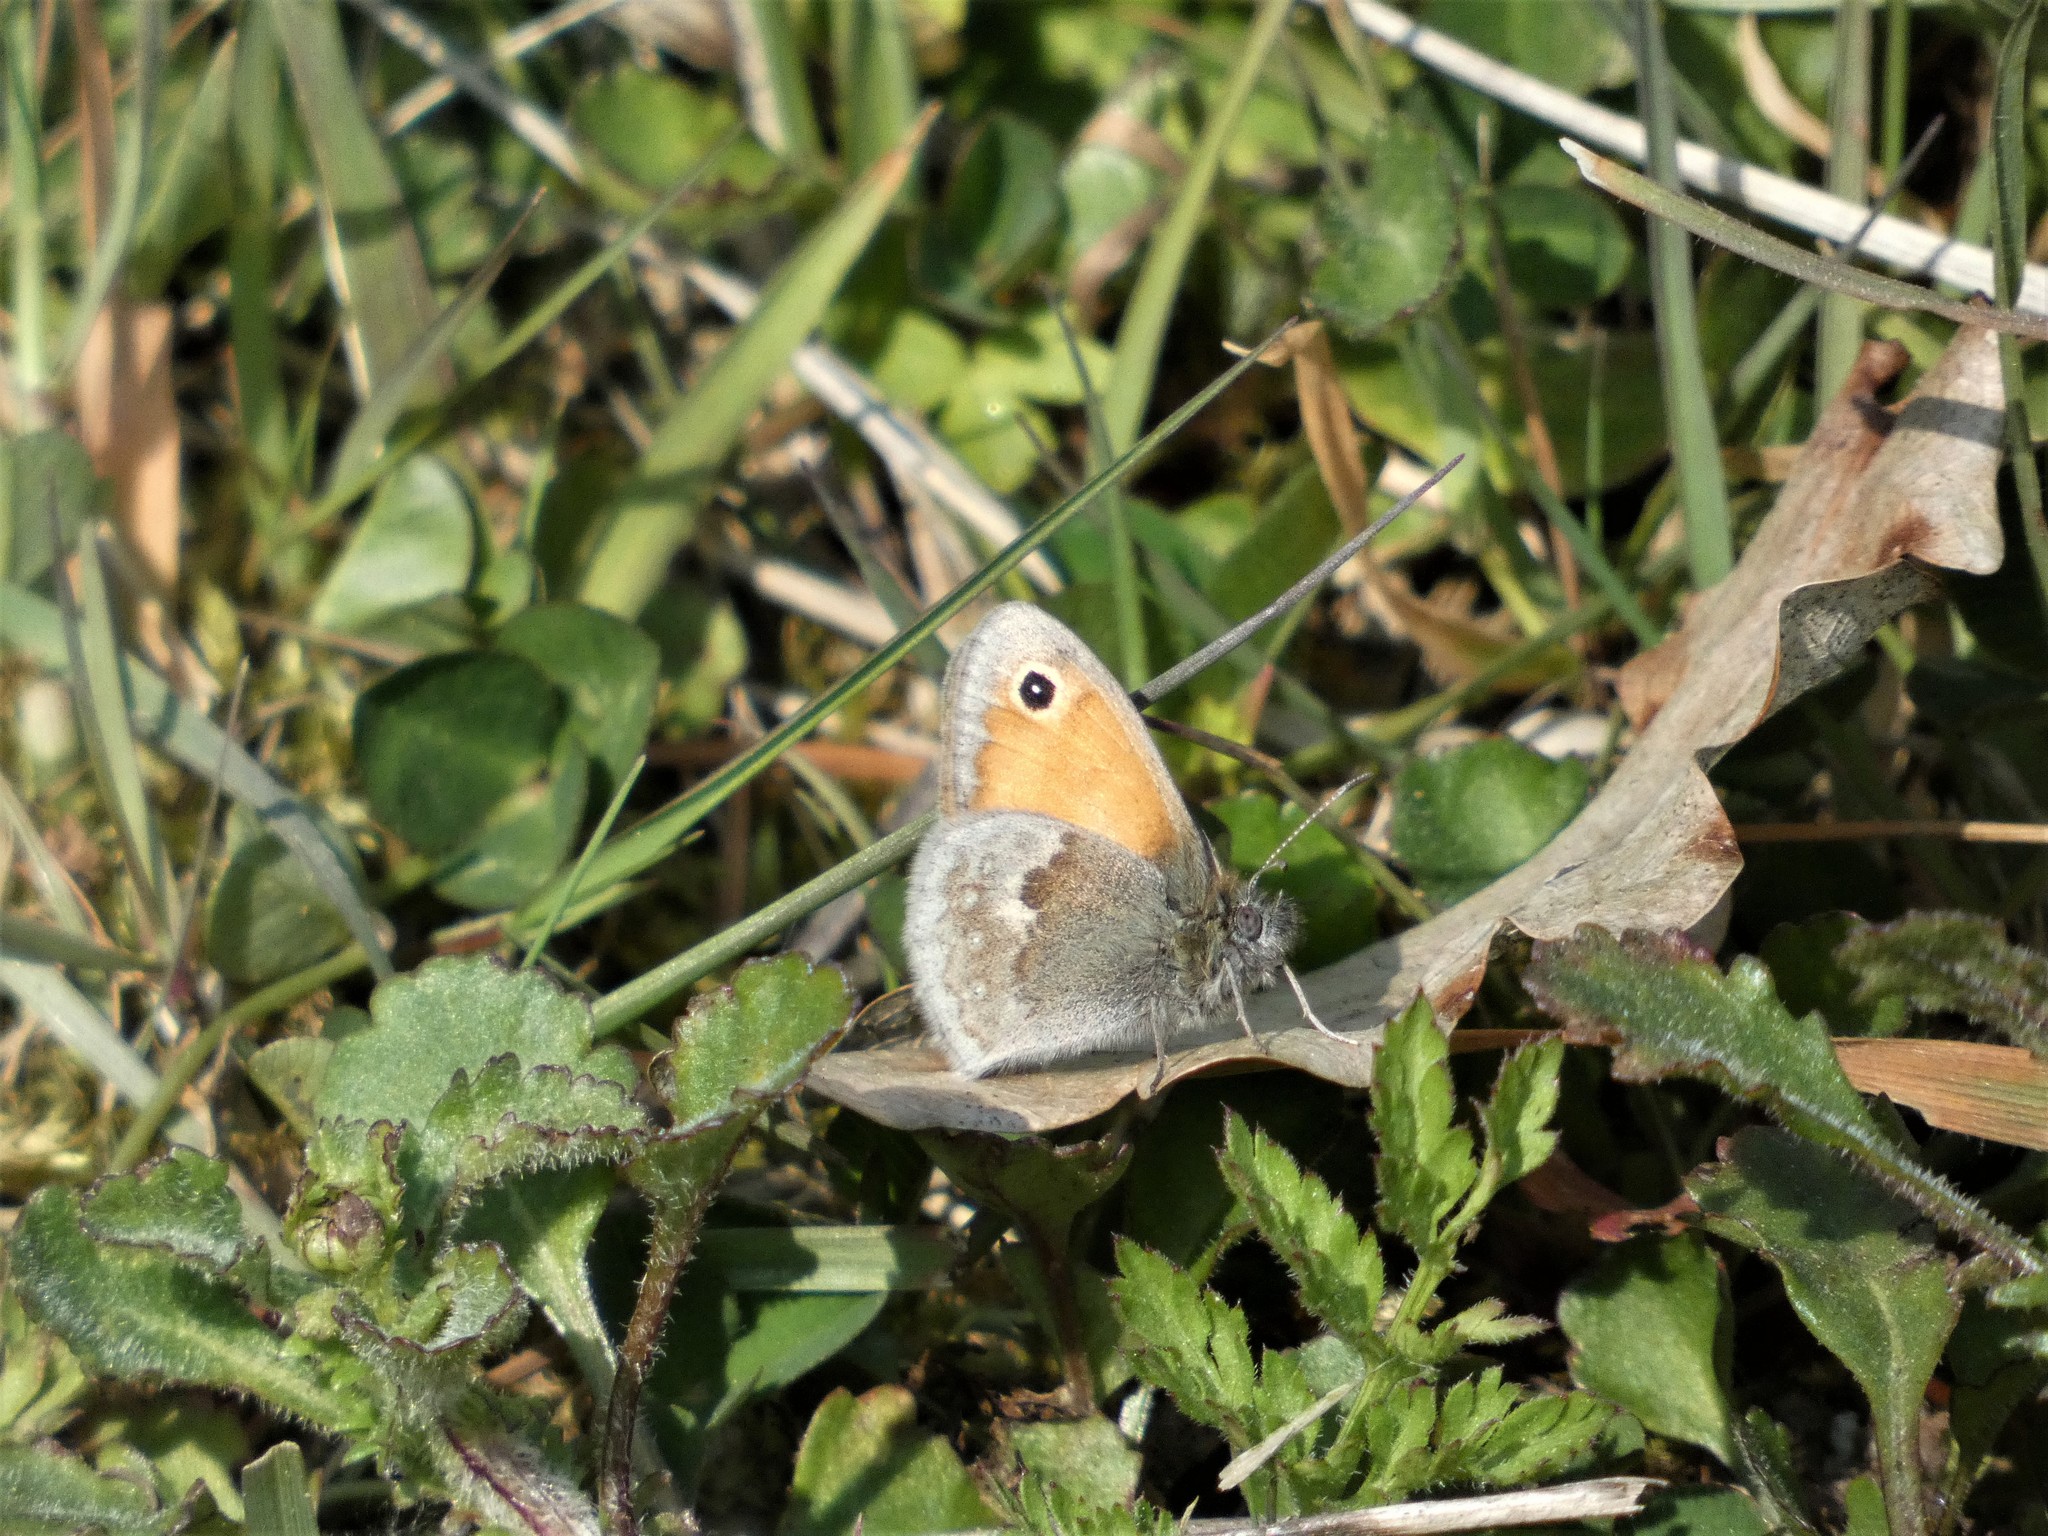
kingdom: Animalia
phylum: Arthropoda
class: Insecta
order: Lepidoptera
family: Nymphalidae
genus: Coenonympha
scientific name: Coenonympha pamphilus
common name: Small heath
